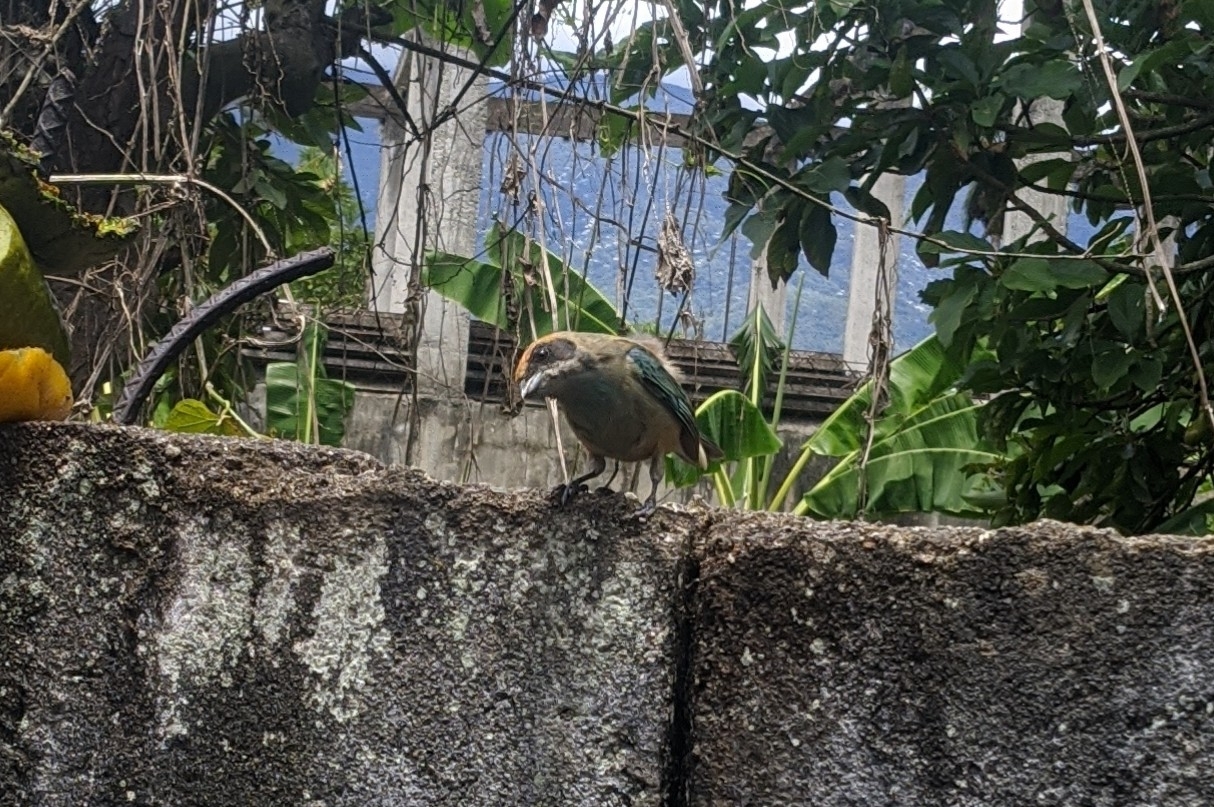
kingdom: Animalia
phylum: Chordata
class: Aves
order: Passeriformes
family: Thraupidae
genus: Stilpnia
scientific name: Stilpnia cayana
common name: Burnished-buff tanager
